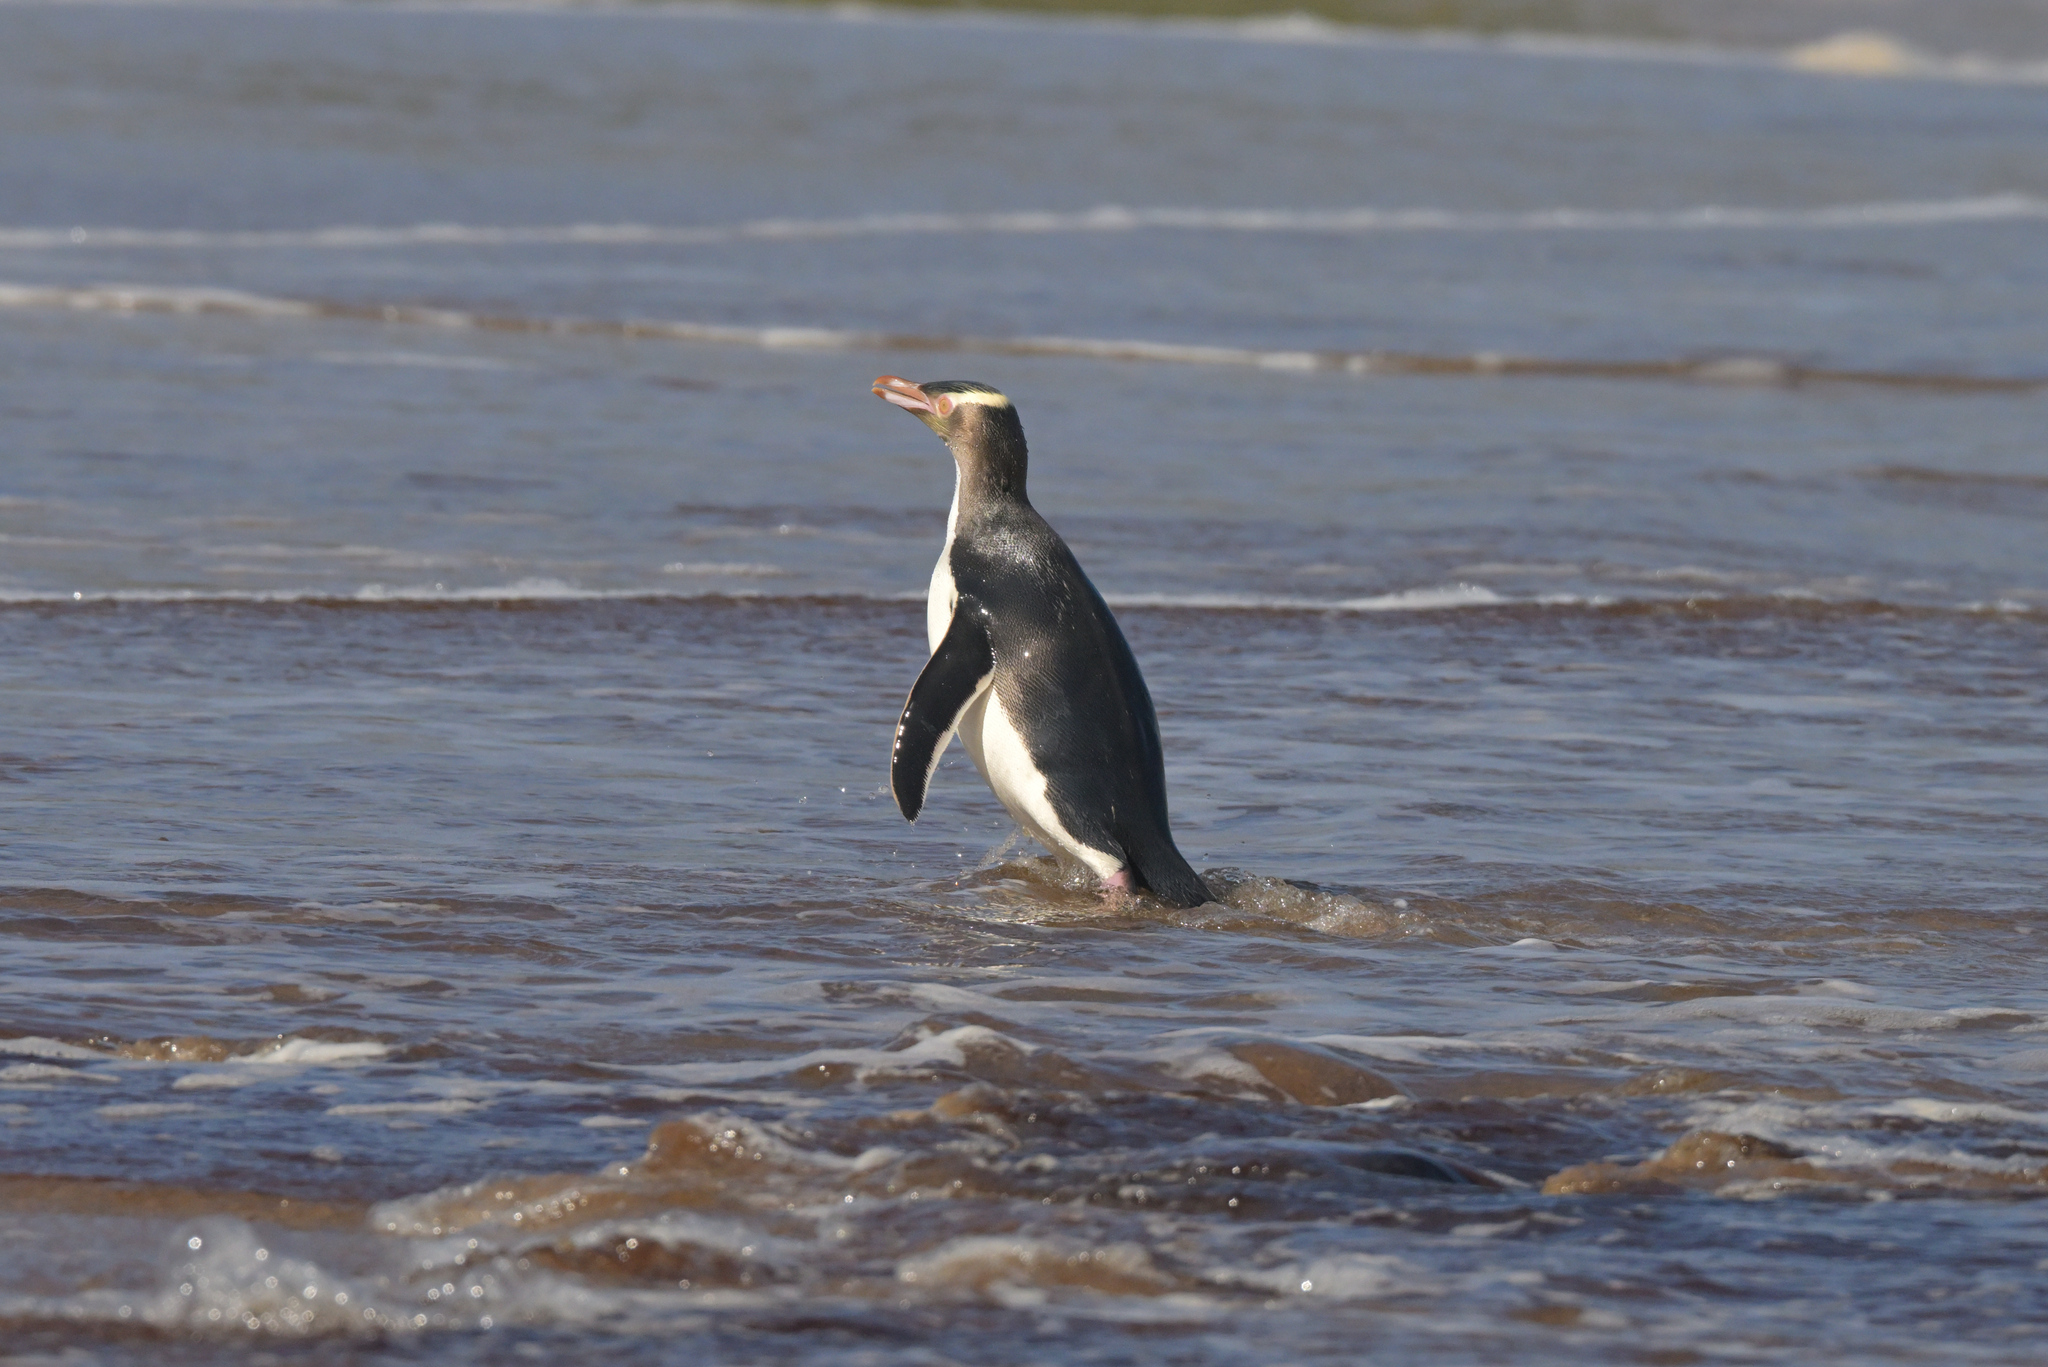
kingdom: Animalia
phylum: Chordata
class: Aves
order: Sphenisciformes
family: Spheniscidae
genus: Megadyptes
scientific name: Megadyptes antipodes
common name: Yellow-eyed penguin
